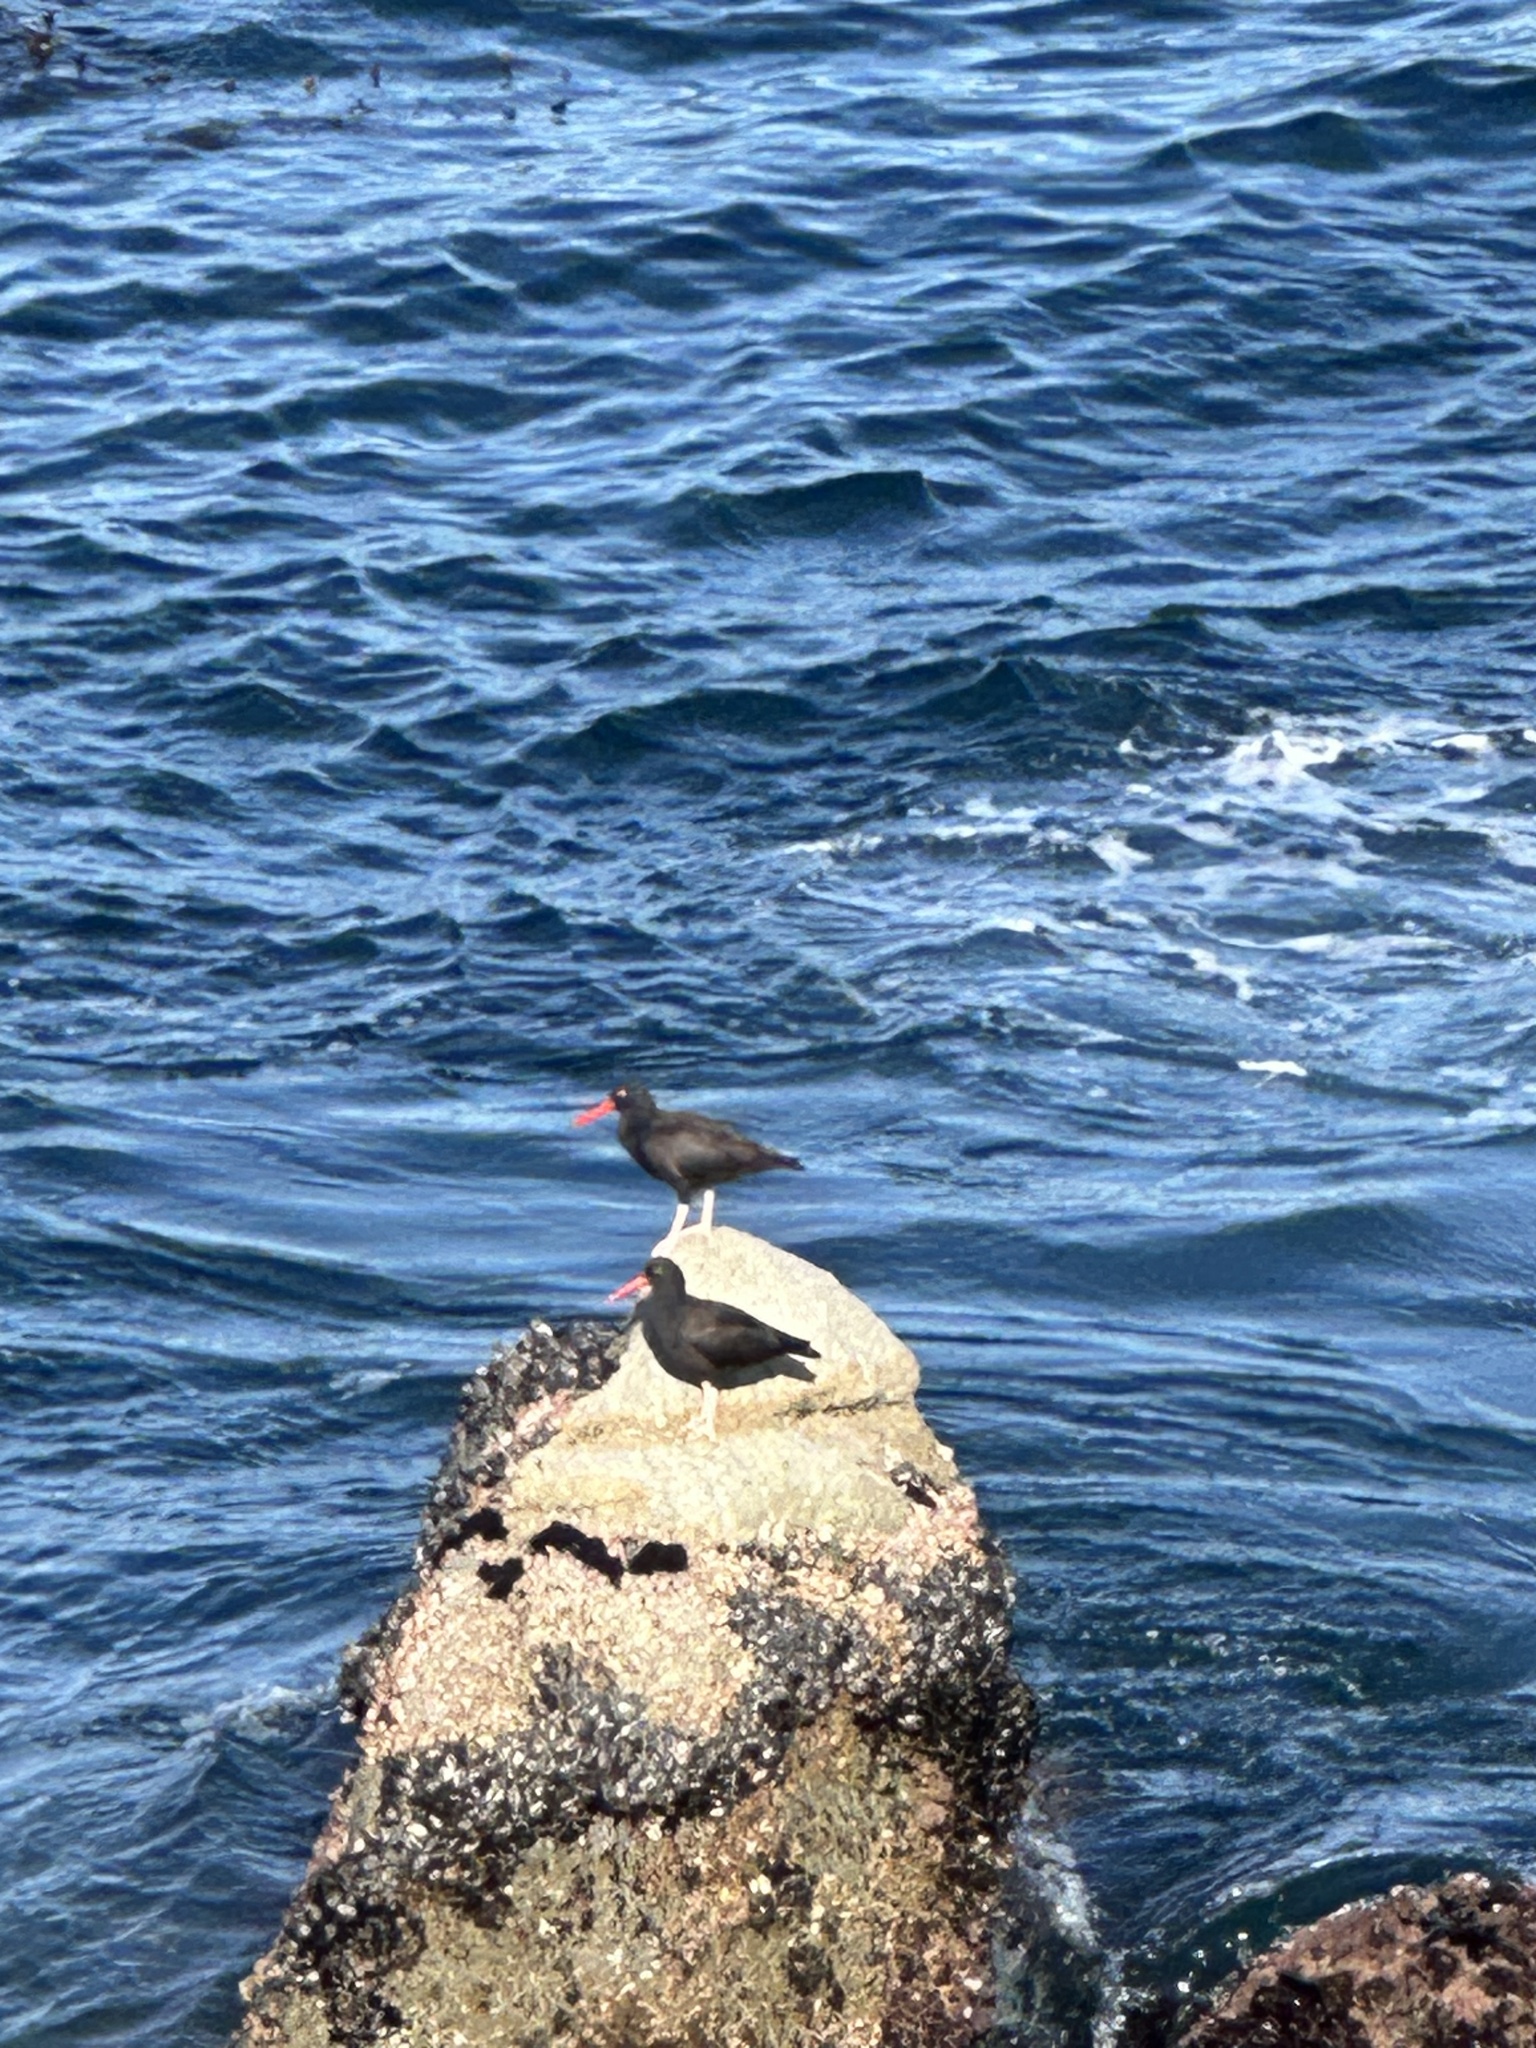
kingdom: Animalia
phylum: Chordata
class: Aves
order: Charadriiformes
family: Haematopodidae
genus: Haematopus
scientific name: Haematopus bachmani
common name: Black oystercatcher
